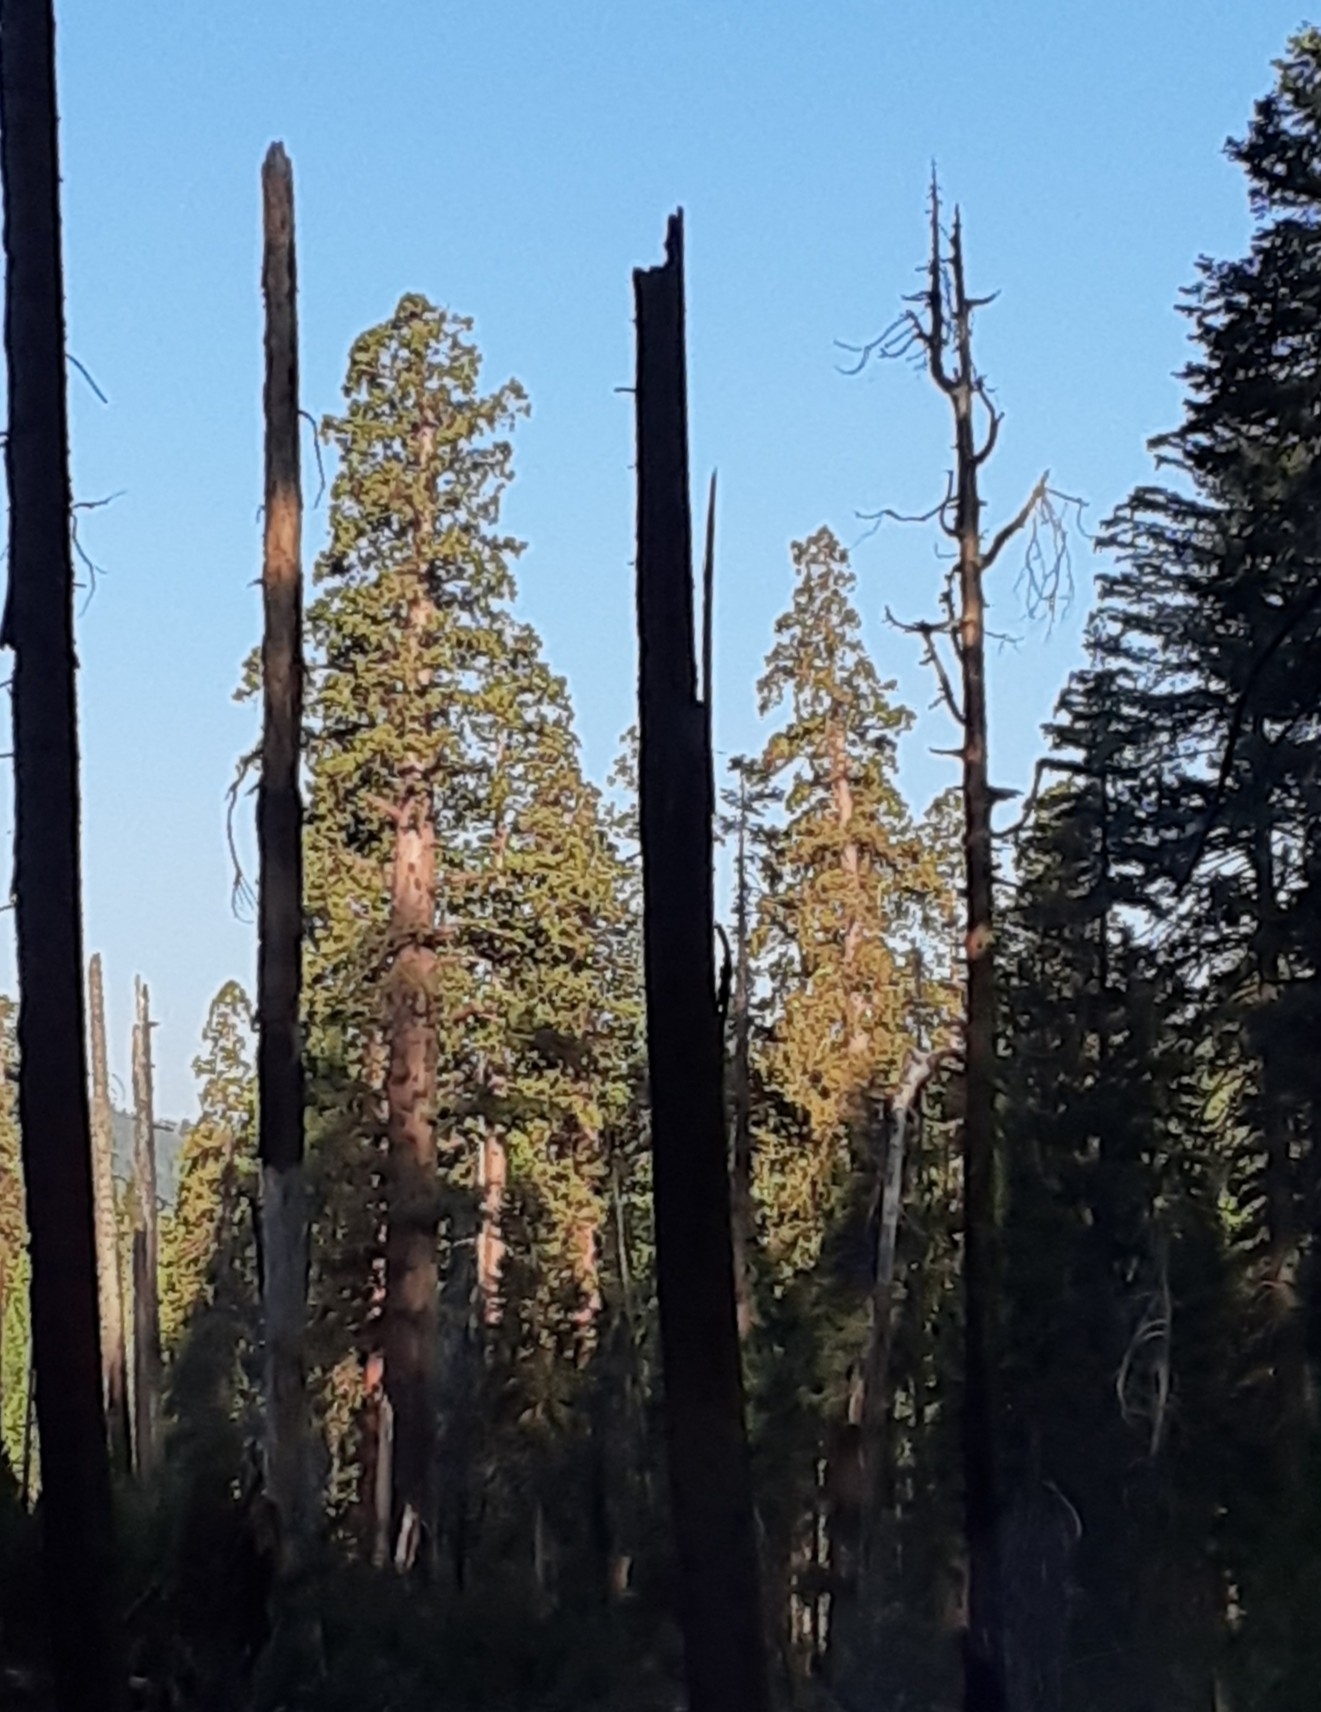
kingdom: Plantae
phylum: Tracheophyta
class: Pinopsida
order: Pinales
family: Cupressaceae
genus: Sequoiadendron
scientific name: Sequoiadendron giganteum
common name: Wellingtonia
